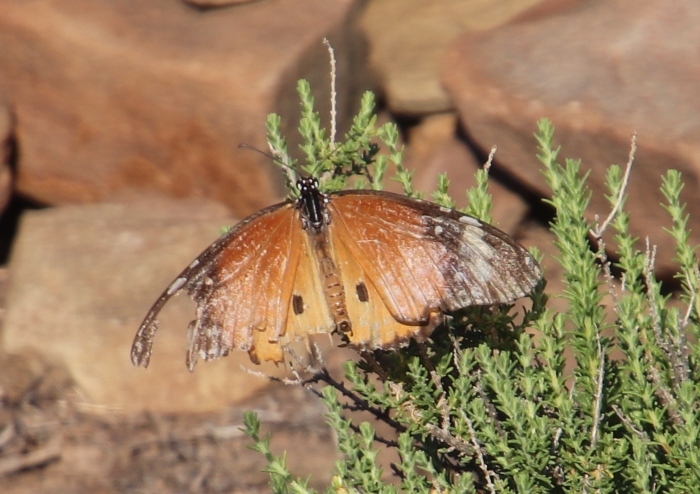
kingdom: Animalia
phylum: Arthropoda
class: Insecta
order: Lepidoptera
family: Nymphalidae
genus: Danaus
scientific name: Danaus chrysippus
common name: Plain tiger
